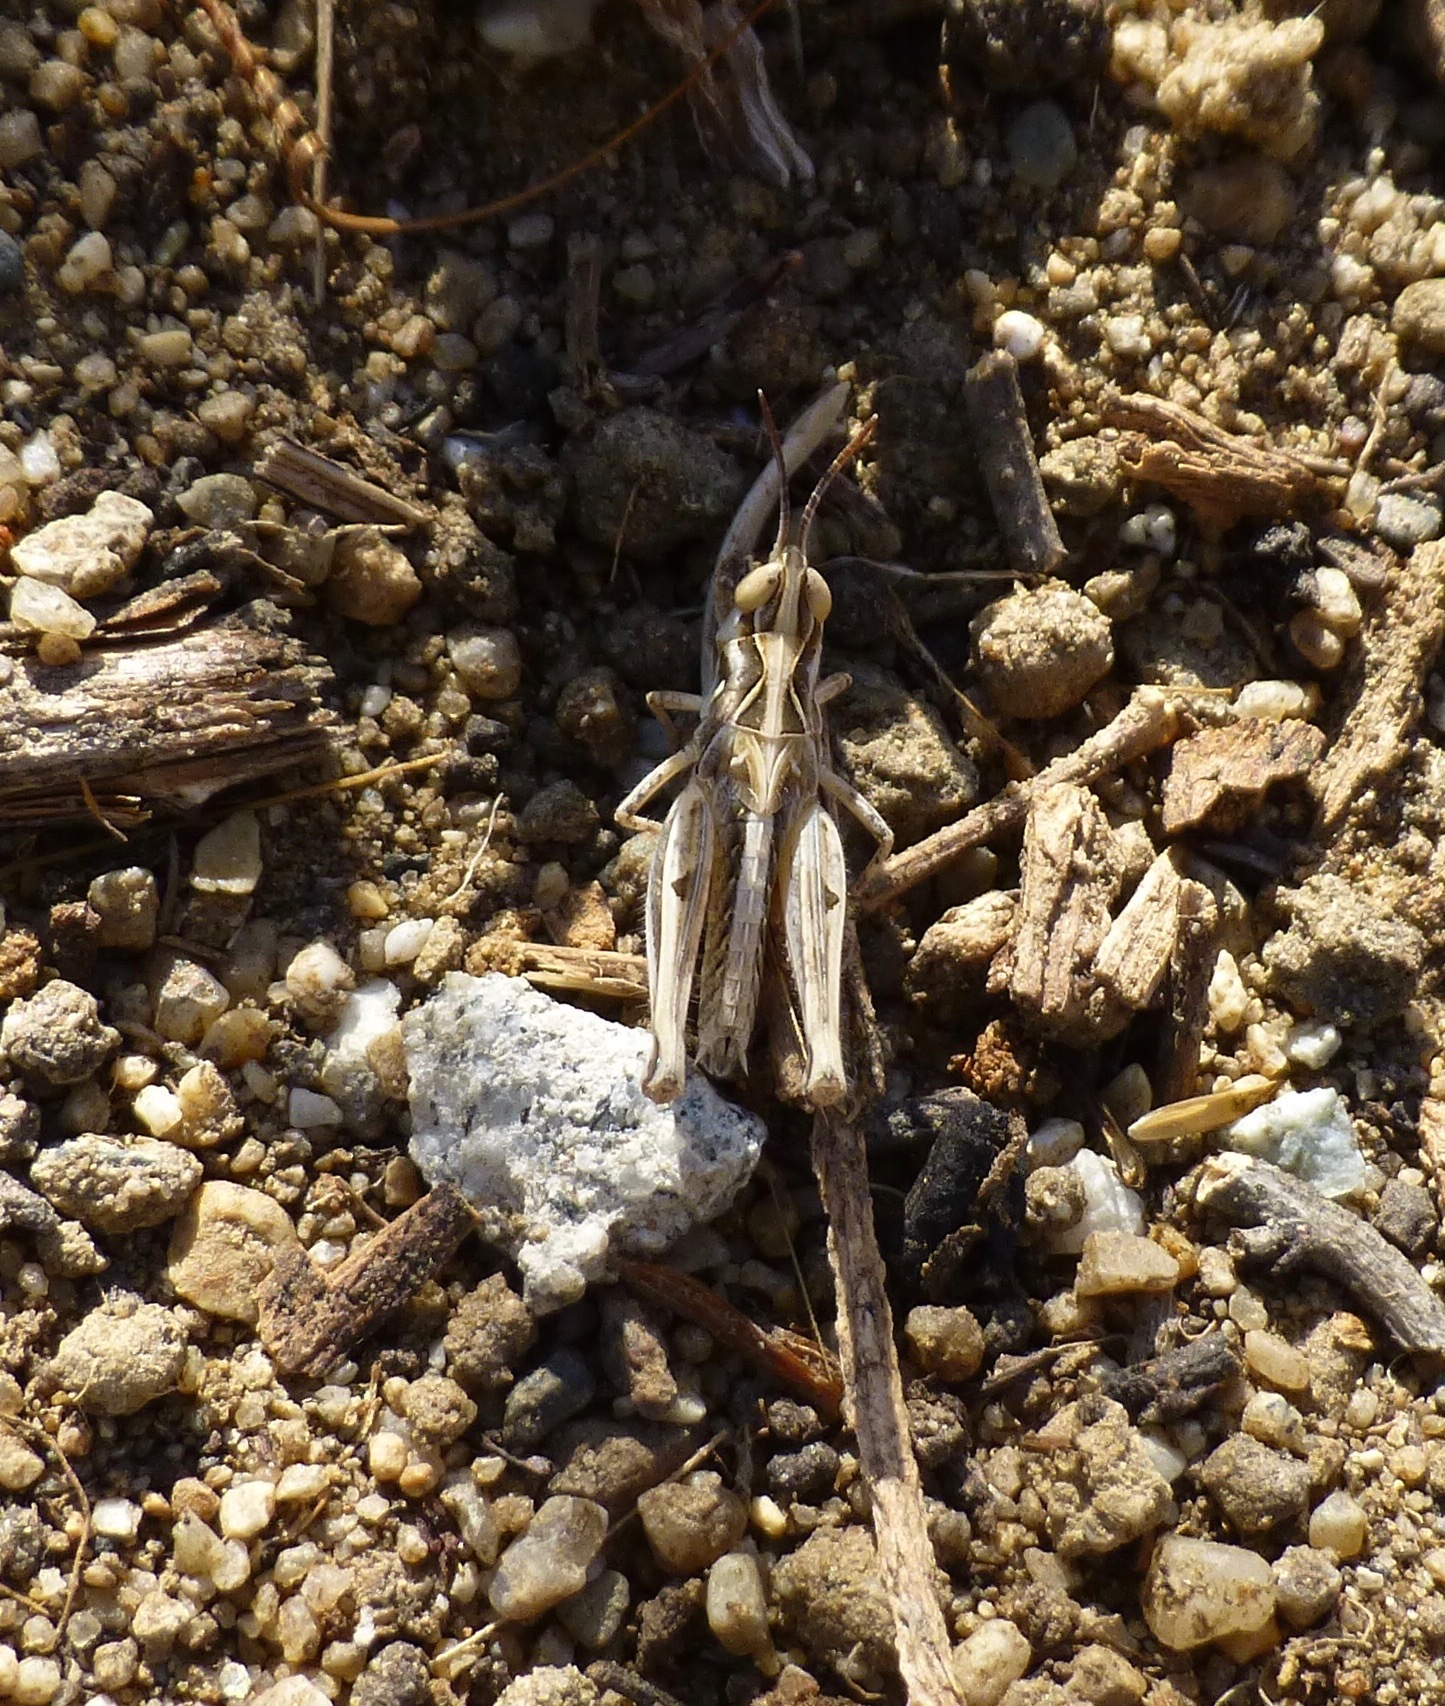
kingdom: Animalia
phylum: Arthropoda
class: Insecta
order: Orthoptera
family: Acrididae
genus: Psoloessa
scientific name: Psoloessa texana
